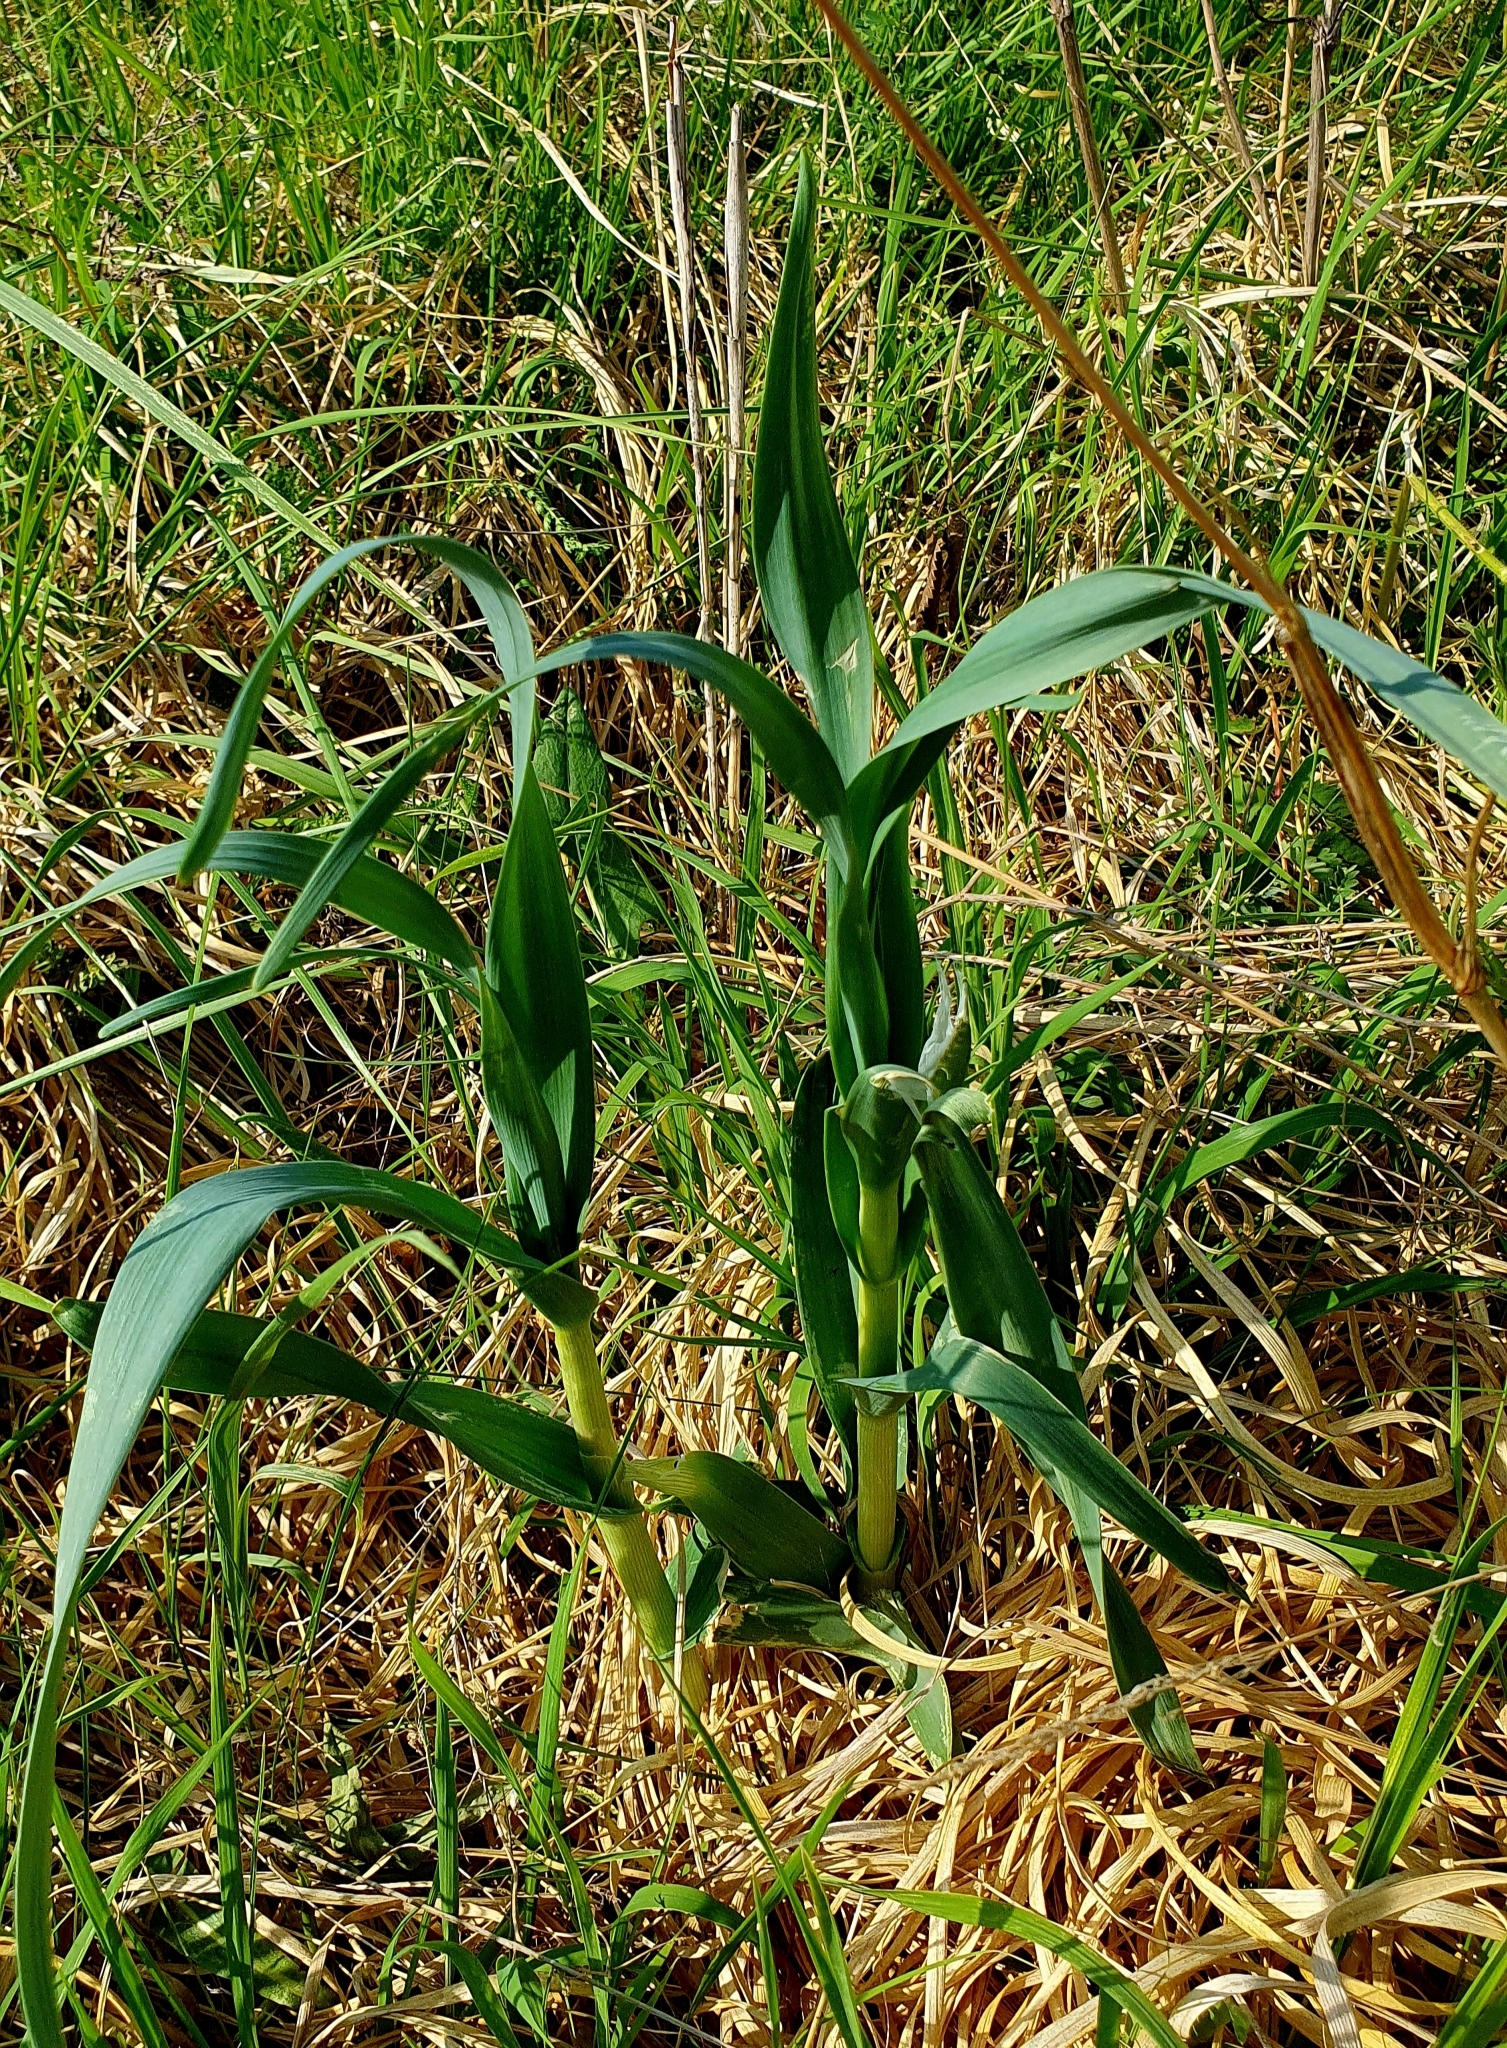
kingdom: Plantae
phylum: Tracheophyta
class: Liliopsida
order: Asparagales
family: Amaryllidaceae
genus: Allium
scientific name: Allium obliquum
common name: Oblique onion
